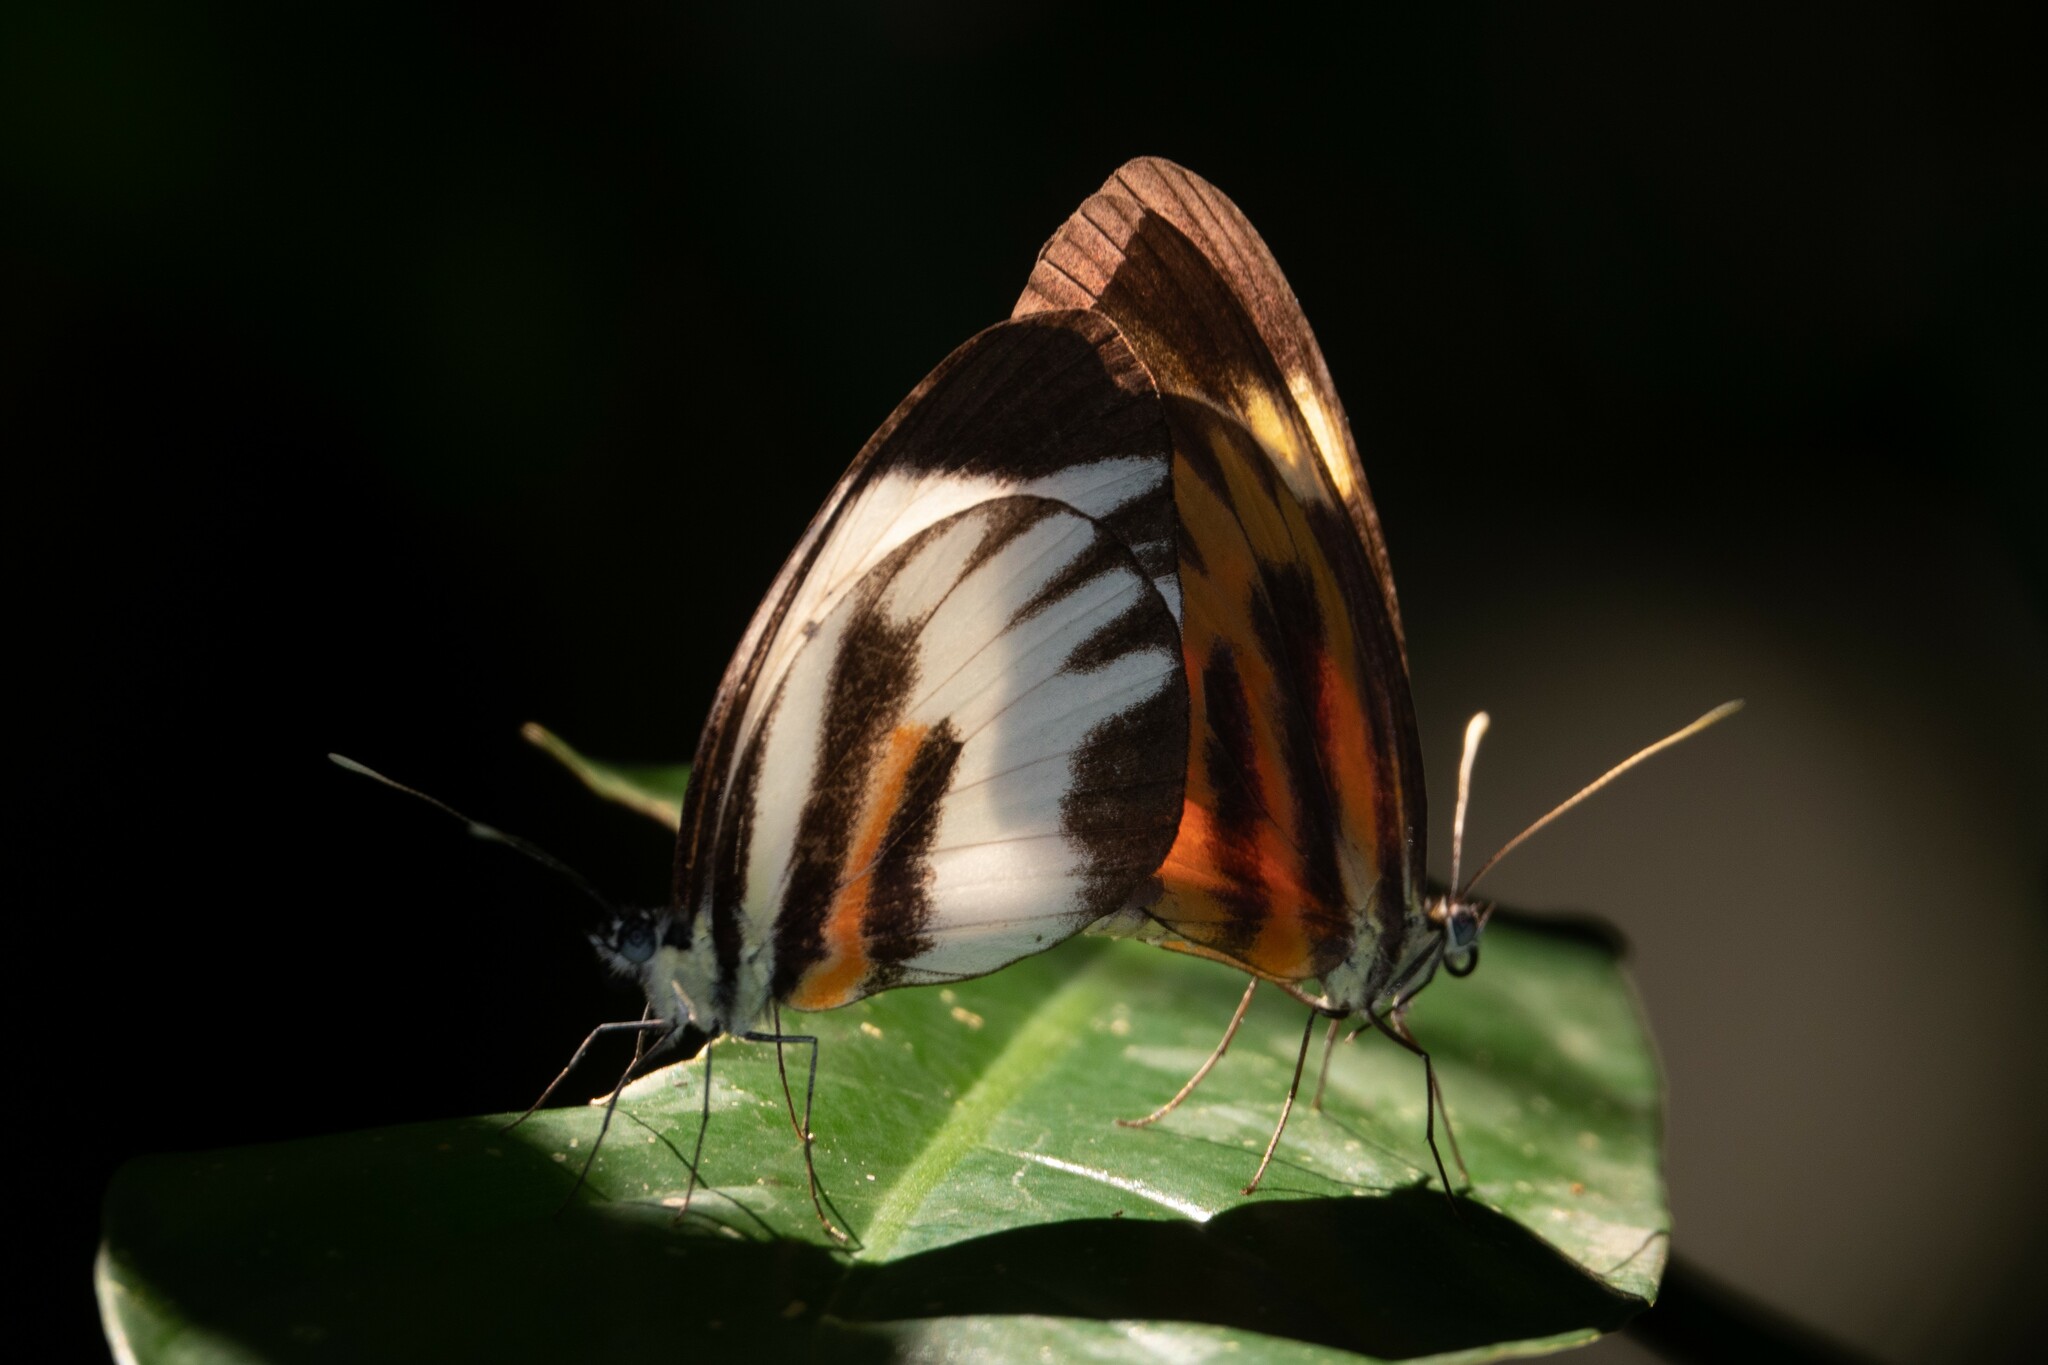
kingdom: Animalia
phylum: Arthropoda
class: Insecta
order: Lepidoptera
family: Pieridae
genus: Perrhybris
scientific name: Perrhybris pamela
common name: Chiapas white
